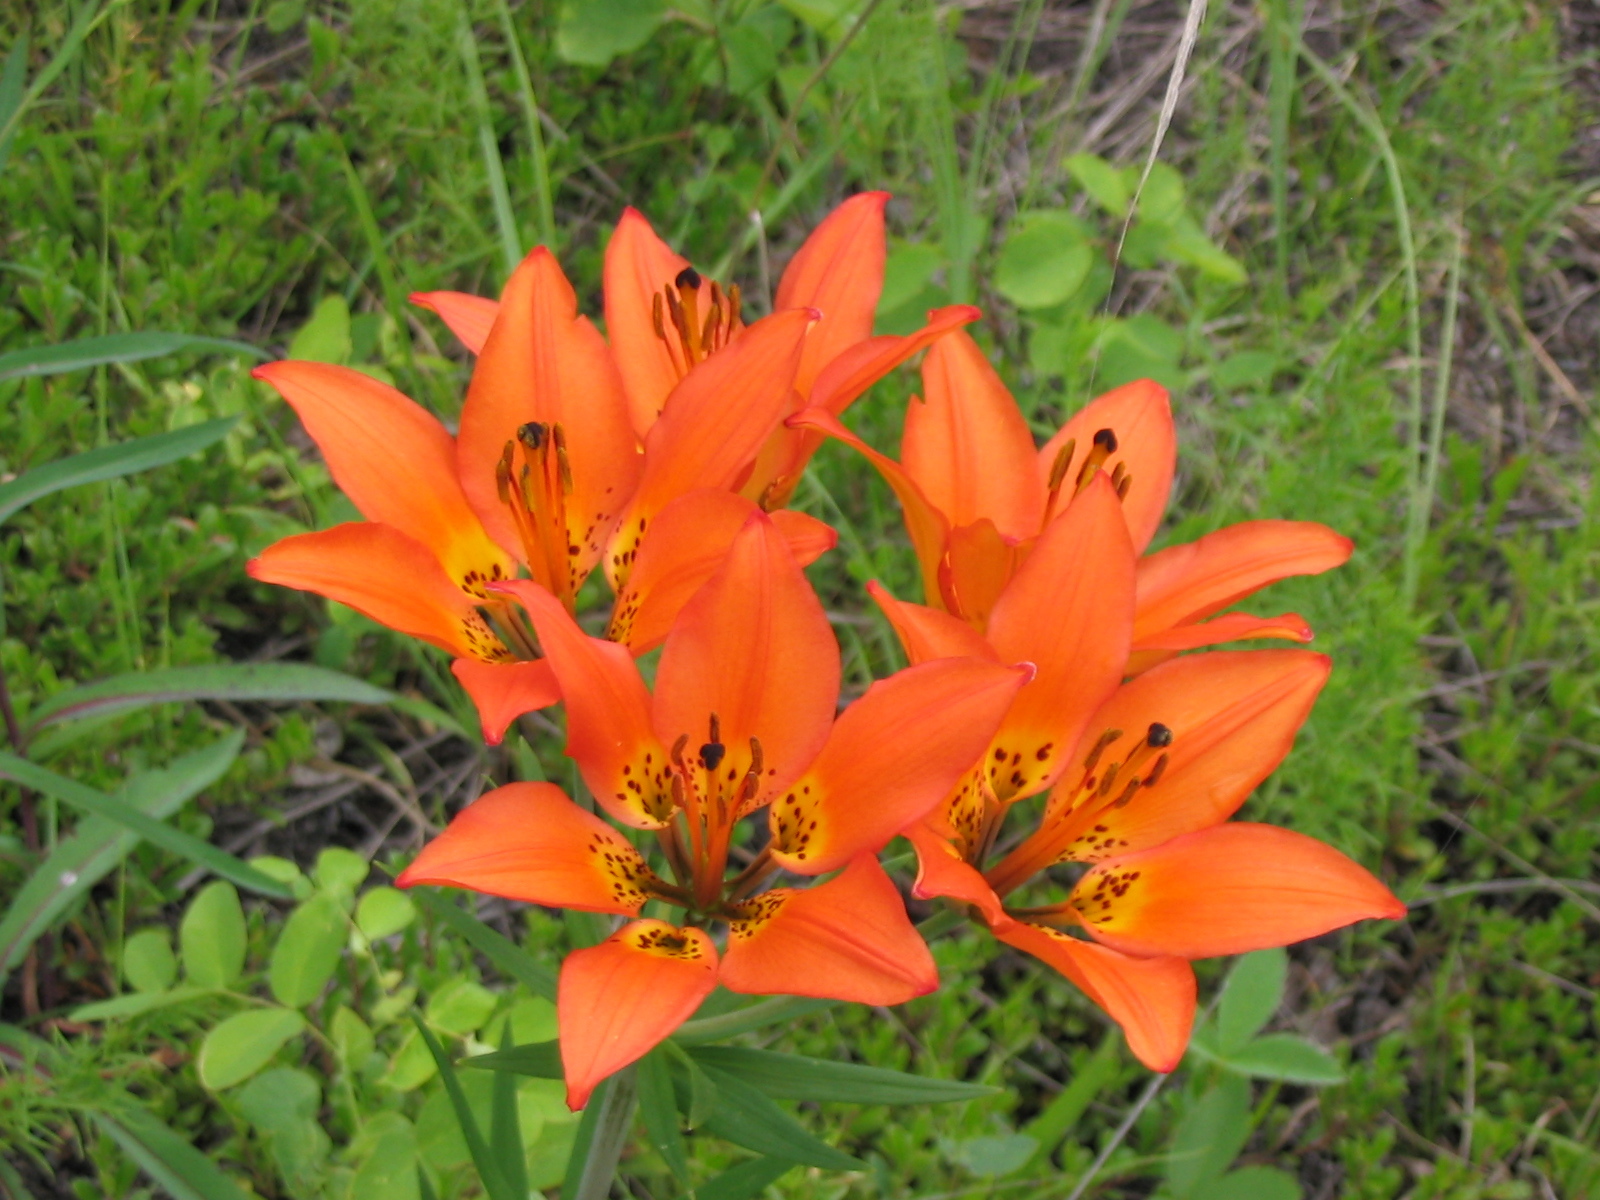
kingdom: Plantae
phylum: Tracheophyta
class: Liliopsida
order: Liliales
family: Liliaceae
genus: Lilium
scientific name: Lilium philadelphicum
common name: Red lily
